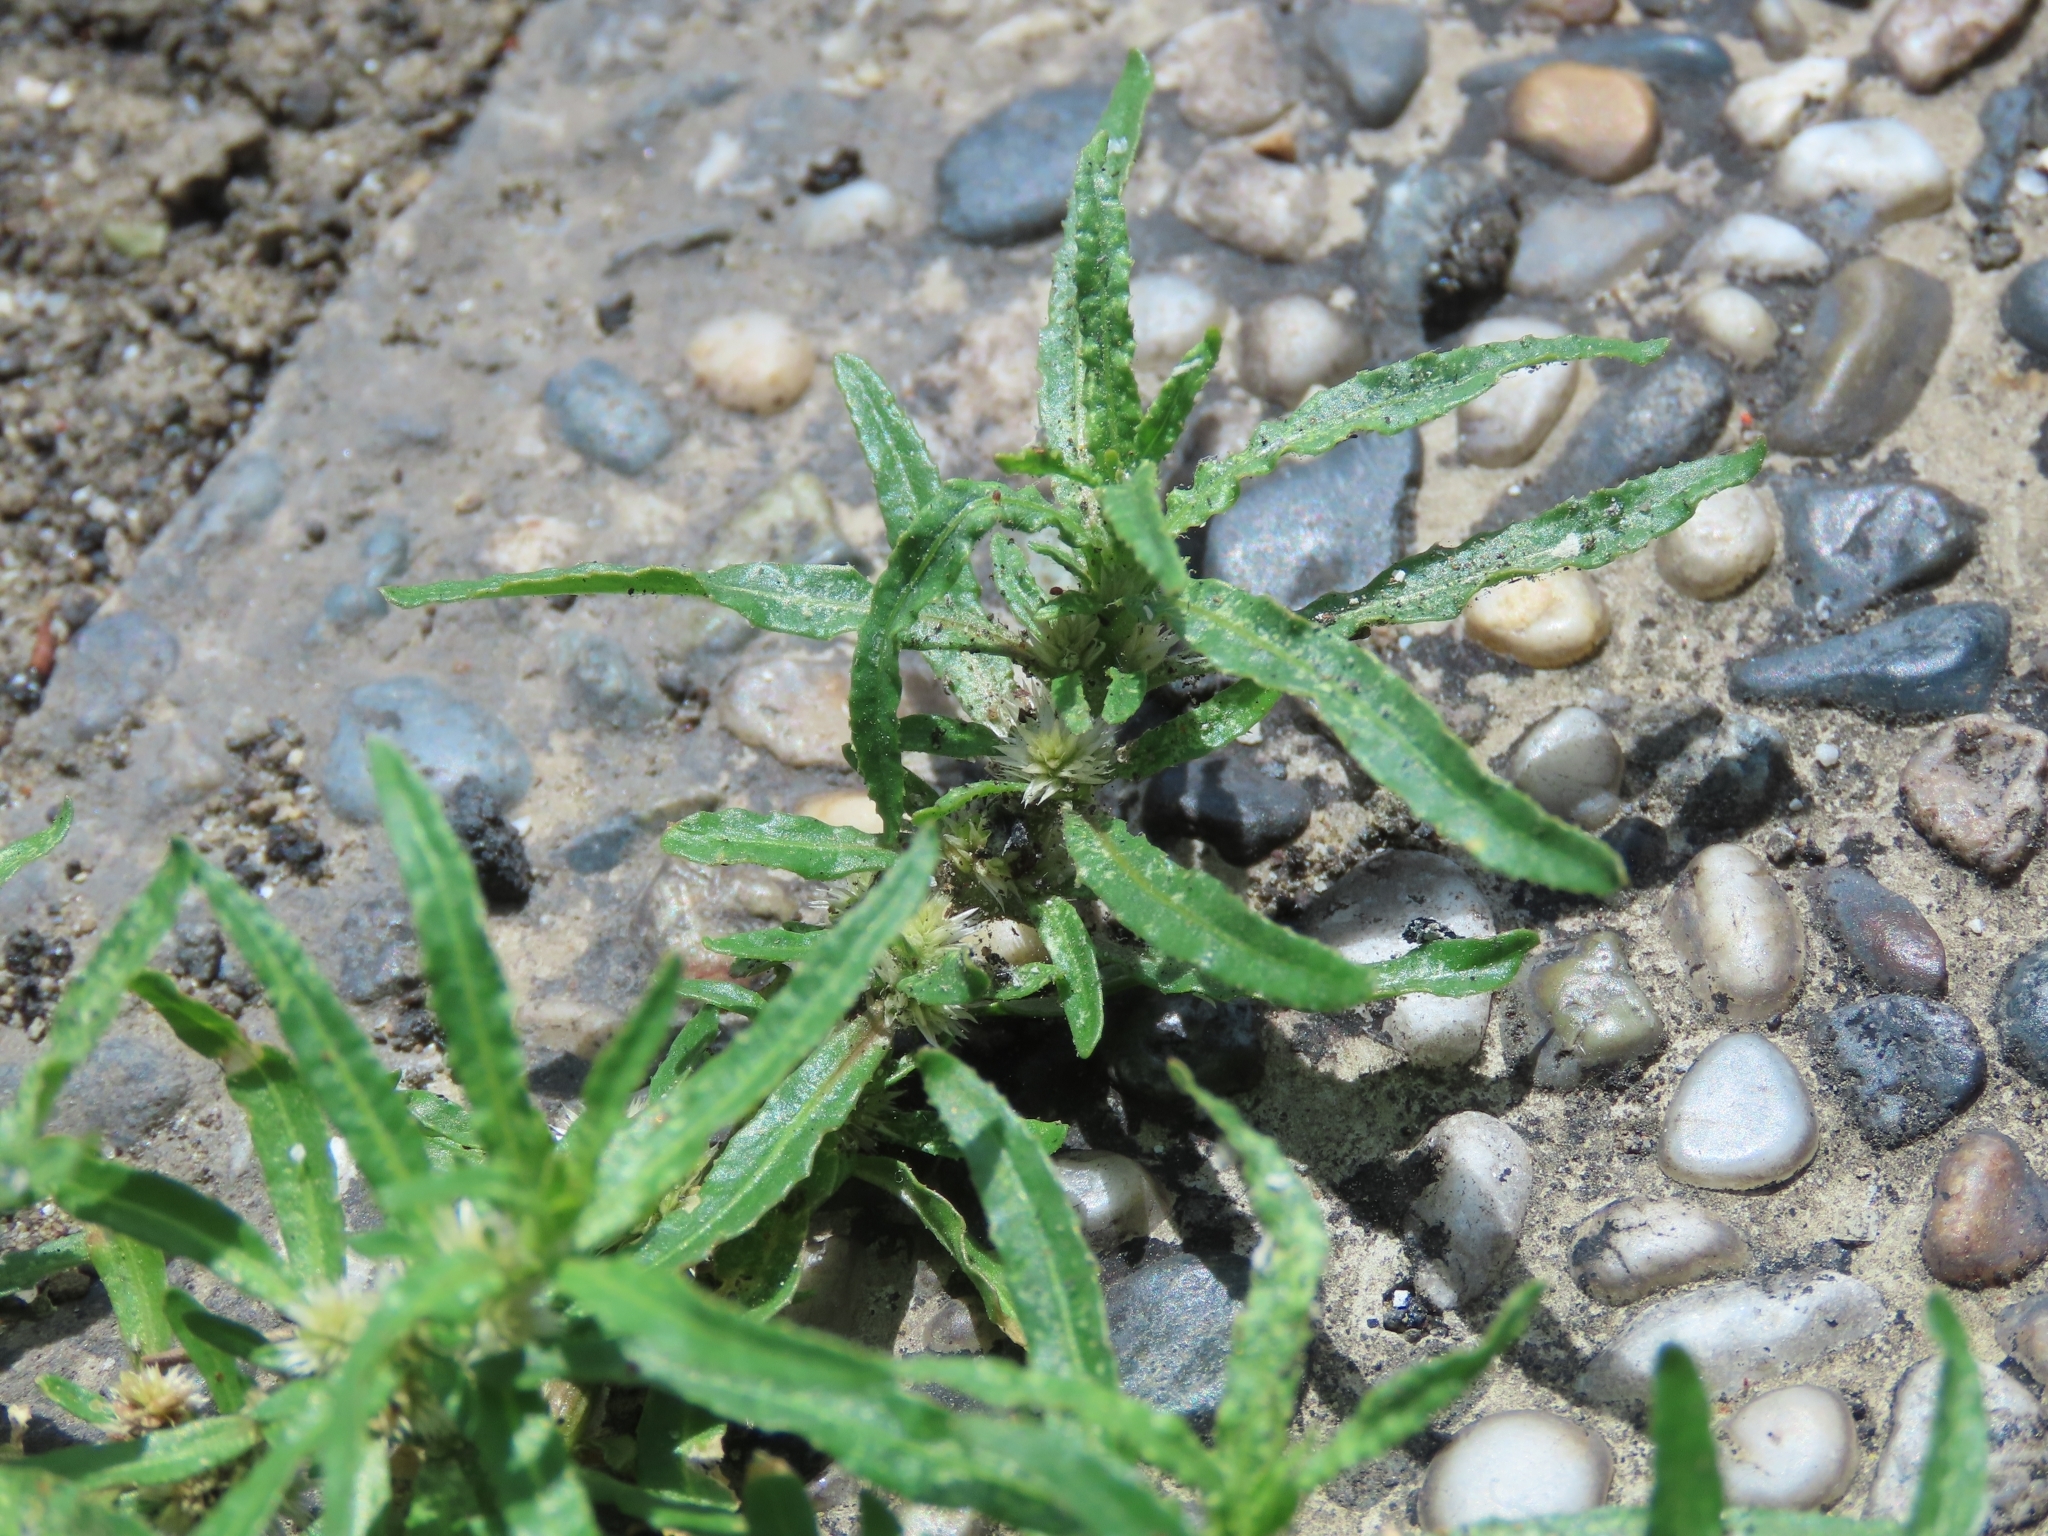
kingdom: Plantae
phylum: Tracheophyta
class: Magnoliopsida
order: Caryophyllales
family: Amaranthaceae
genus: Alternanthera
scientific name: Alternanthera sessilis
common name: Sessile joyweed
